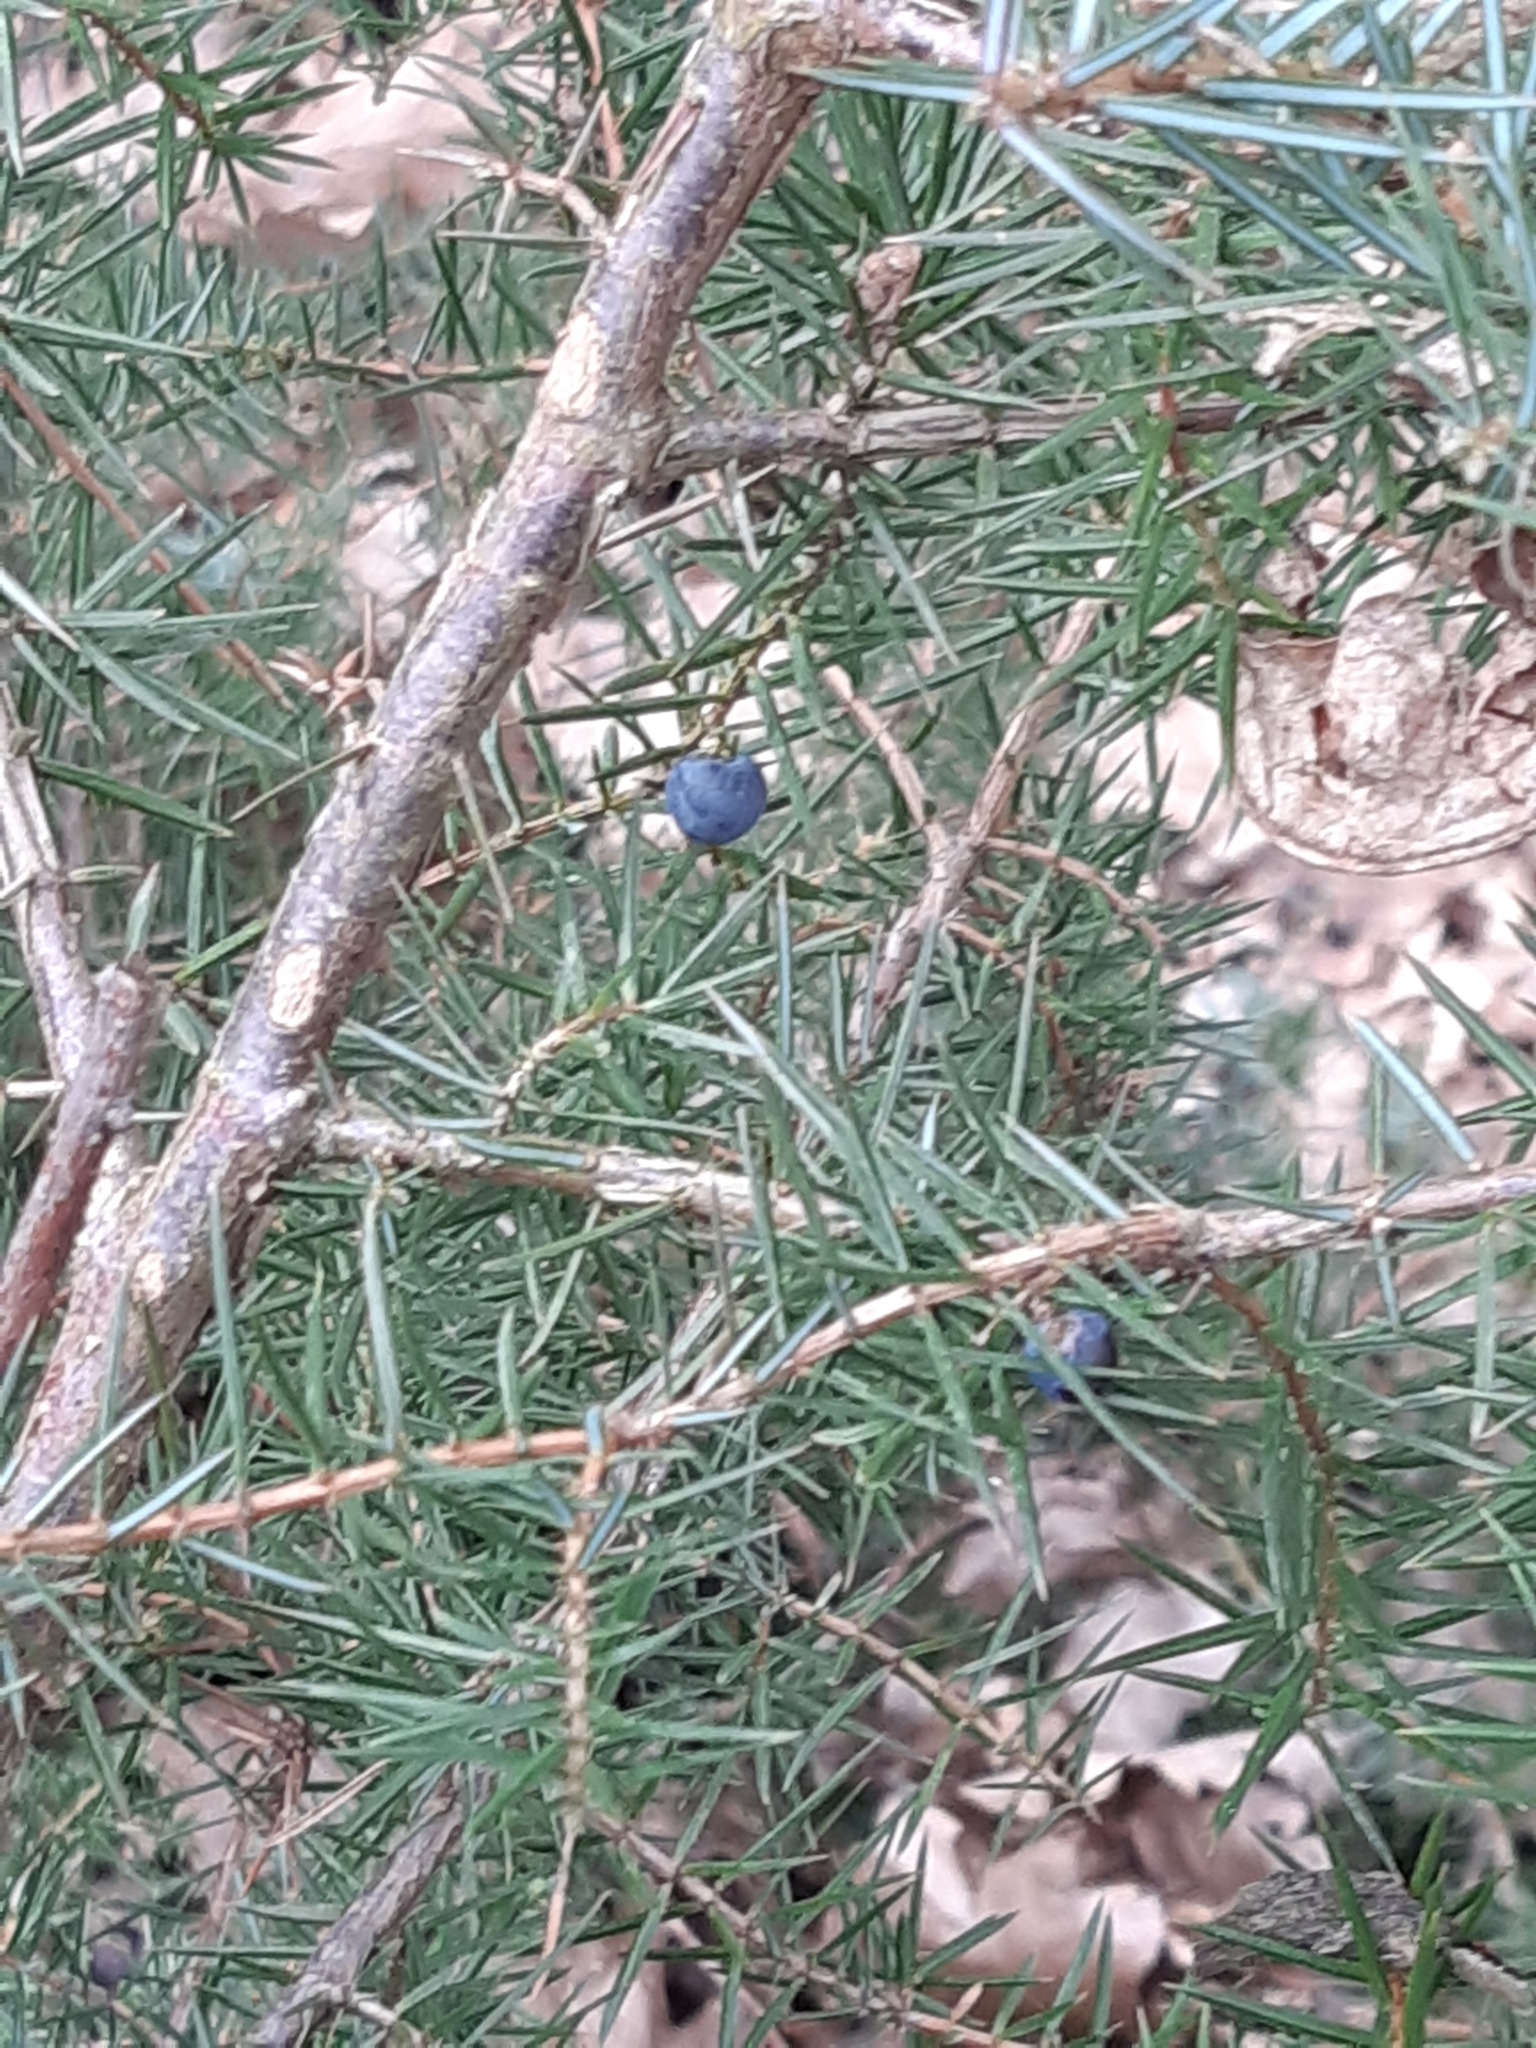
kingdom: Plantae
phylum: Tracheophyta
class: Pinopsida
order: Pinales
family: Cupressaceae
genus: Juniperus
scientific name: Juniperus communis
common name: Common juniper
